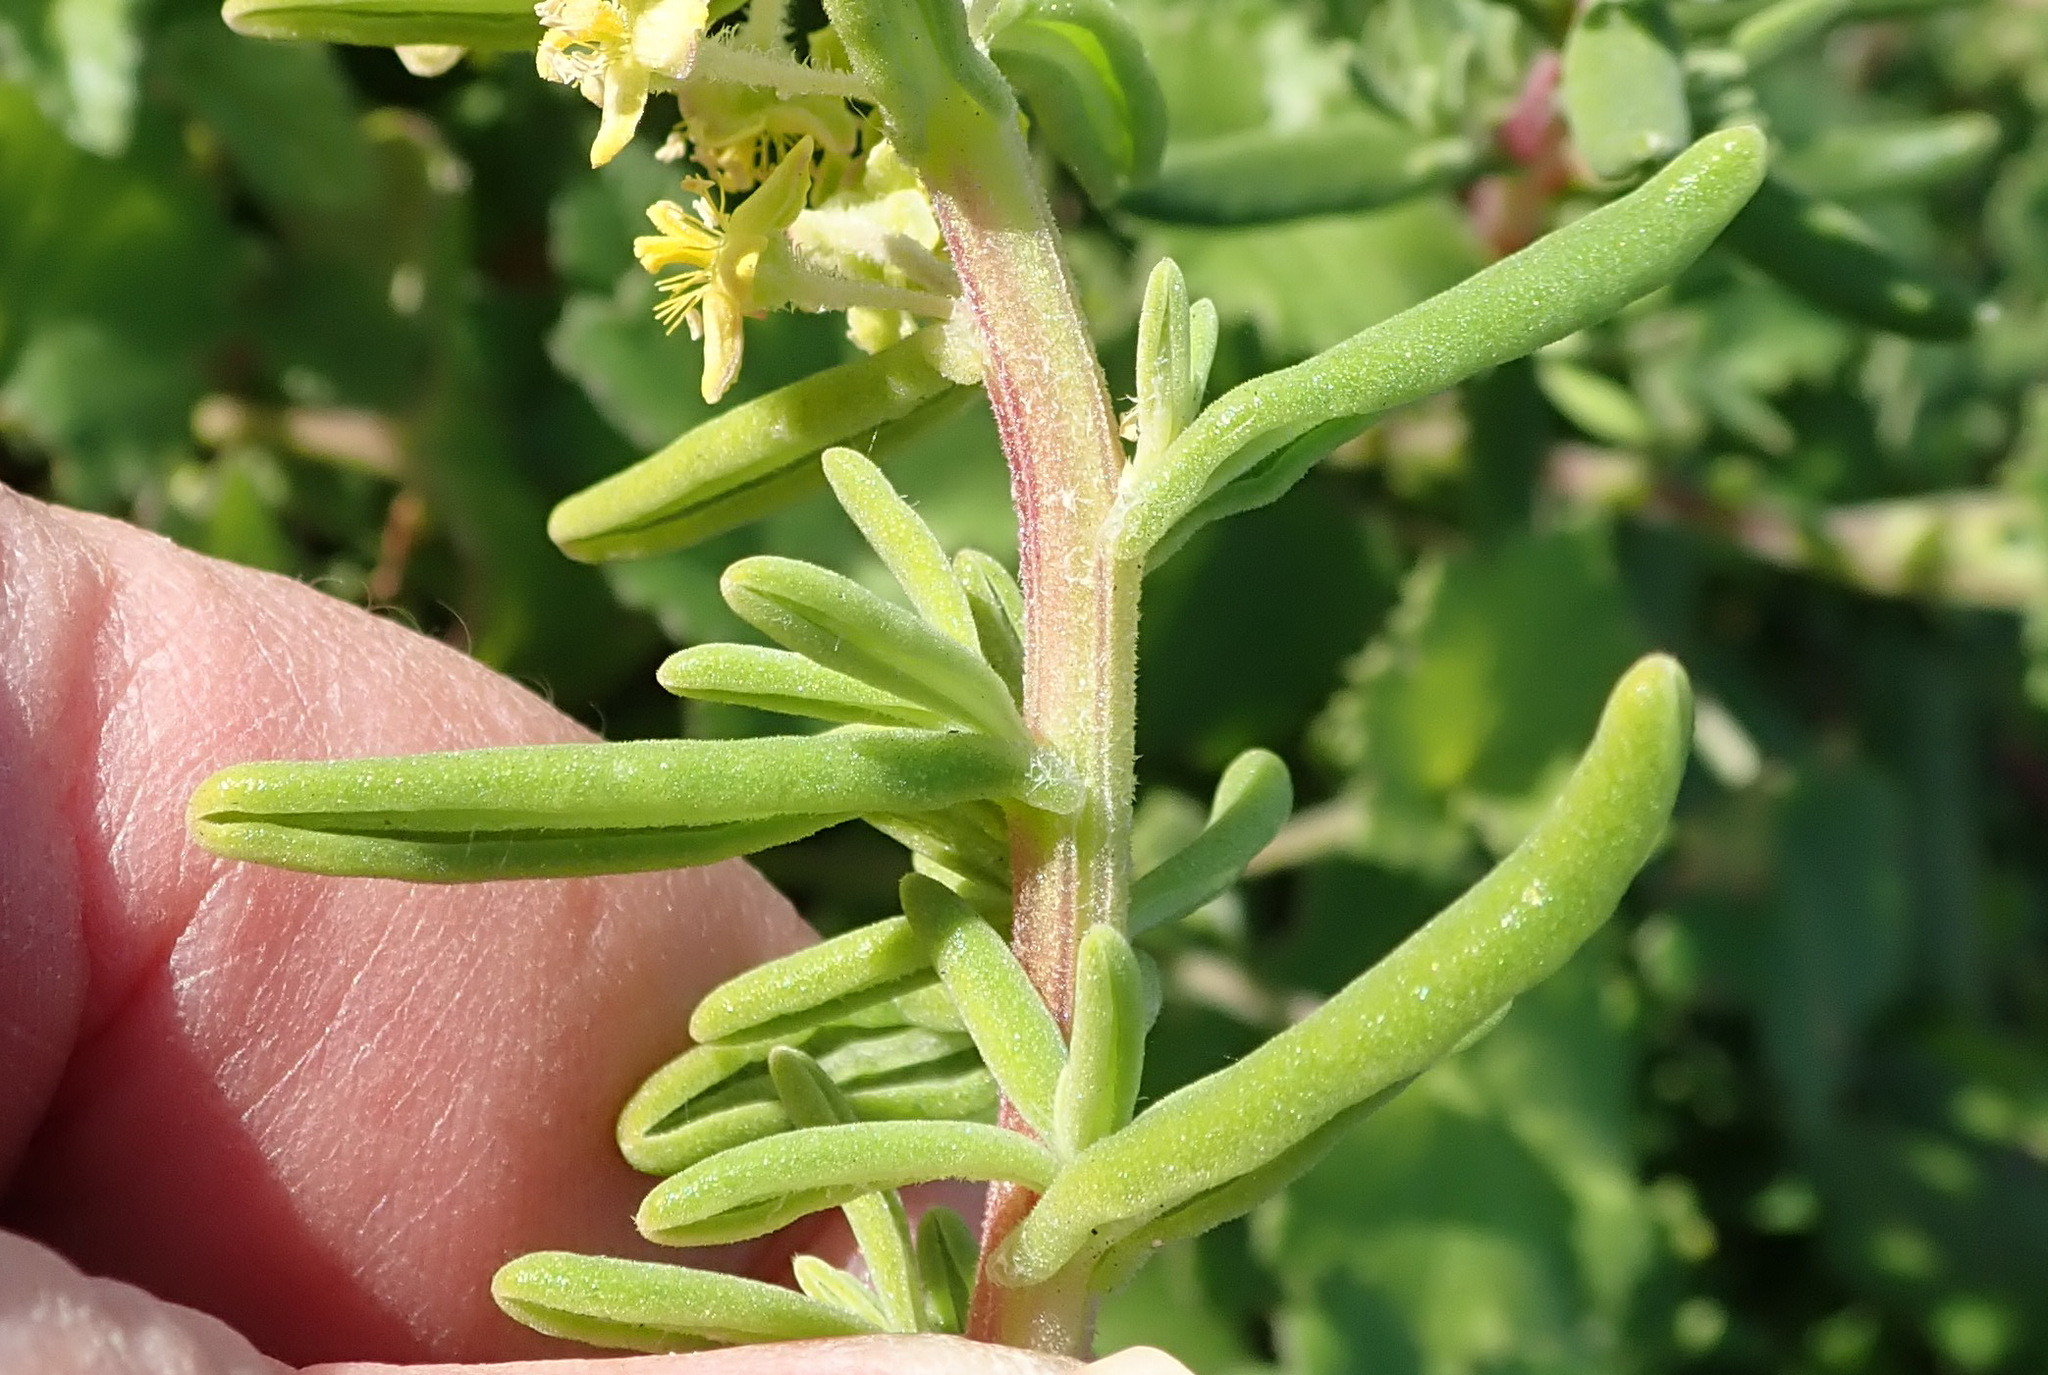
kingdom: Plantae
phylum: Tracheophyta
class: Magnoliopsida
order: Caryophyllales
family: Aizoaceae
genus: Tetragonia
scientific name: Tetragonia fruticosa
